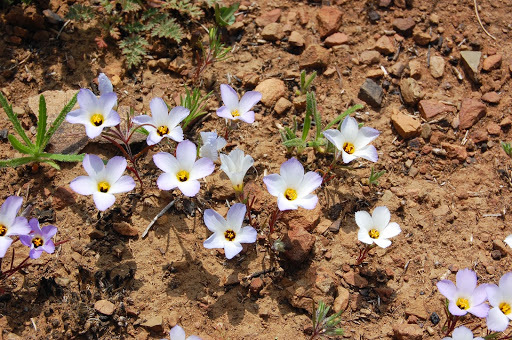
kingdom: Plantae
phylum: Tracheophyta
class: Magnoliopsida
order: Ericales
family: Polemoniaceae
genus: Linanthus
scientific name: Linanthus dianthiflorus
